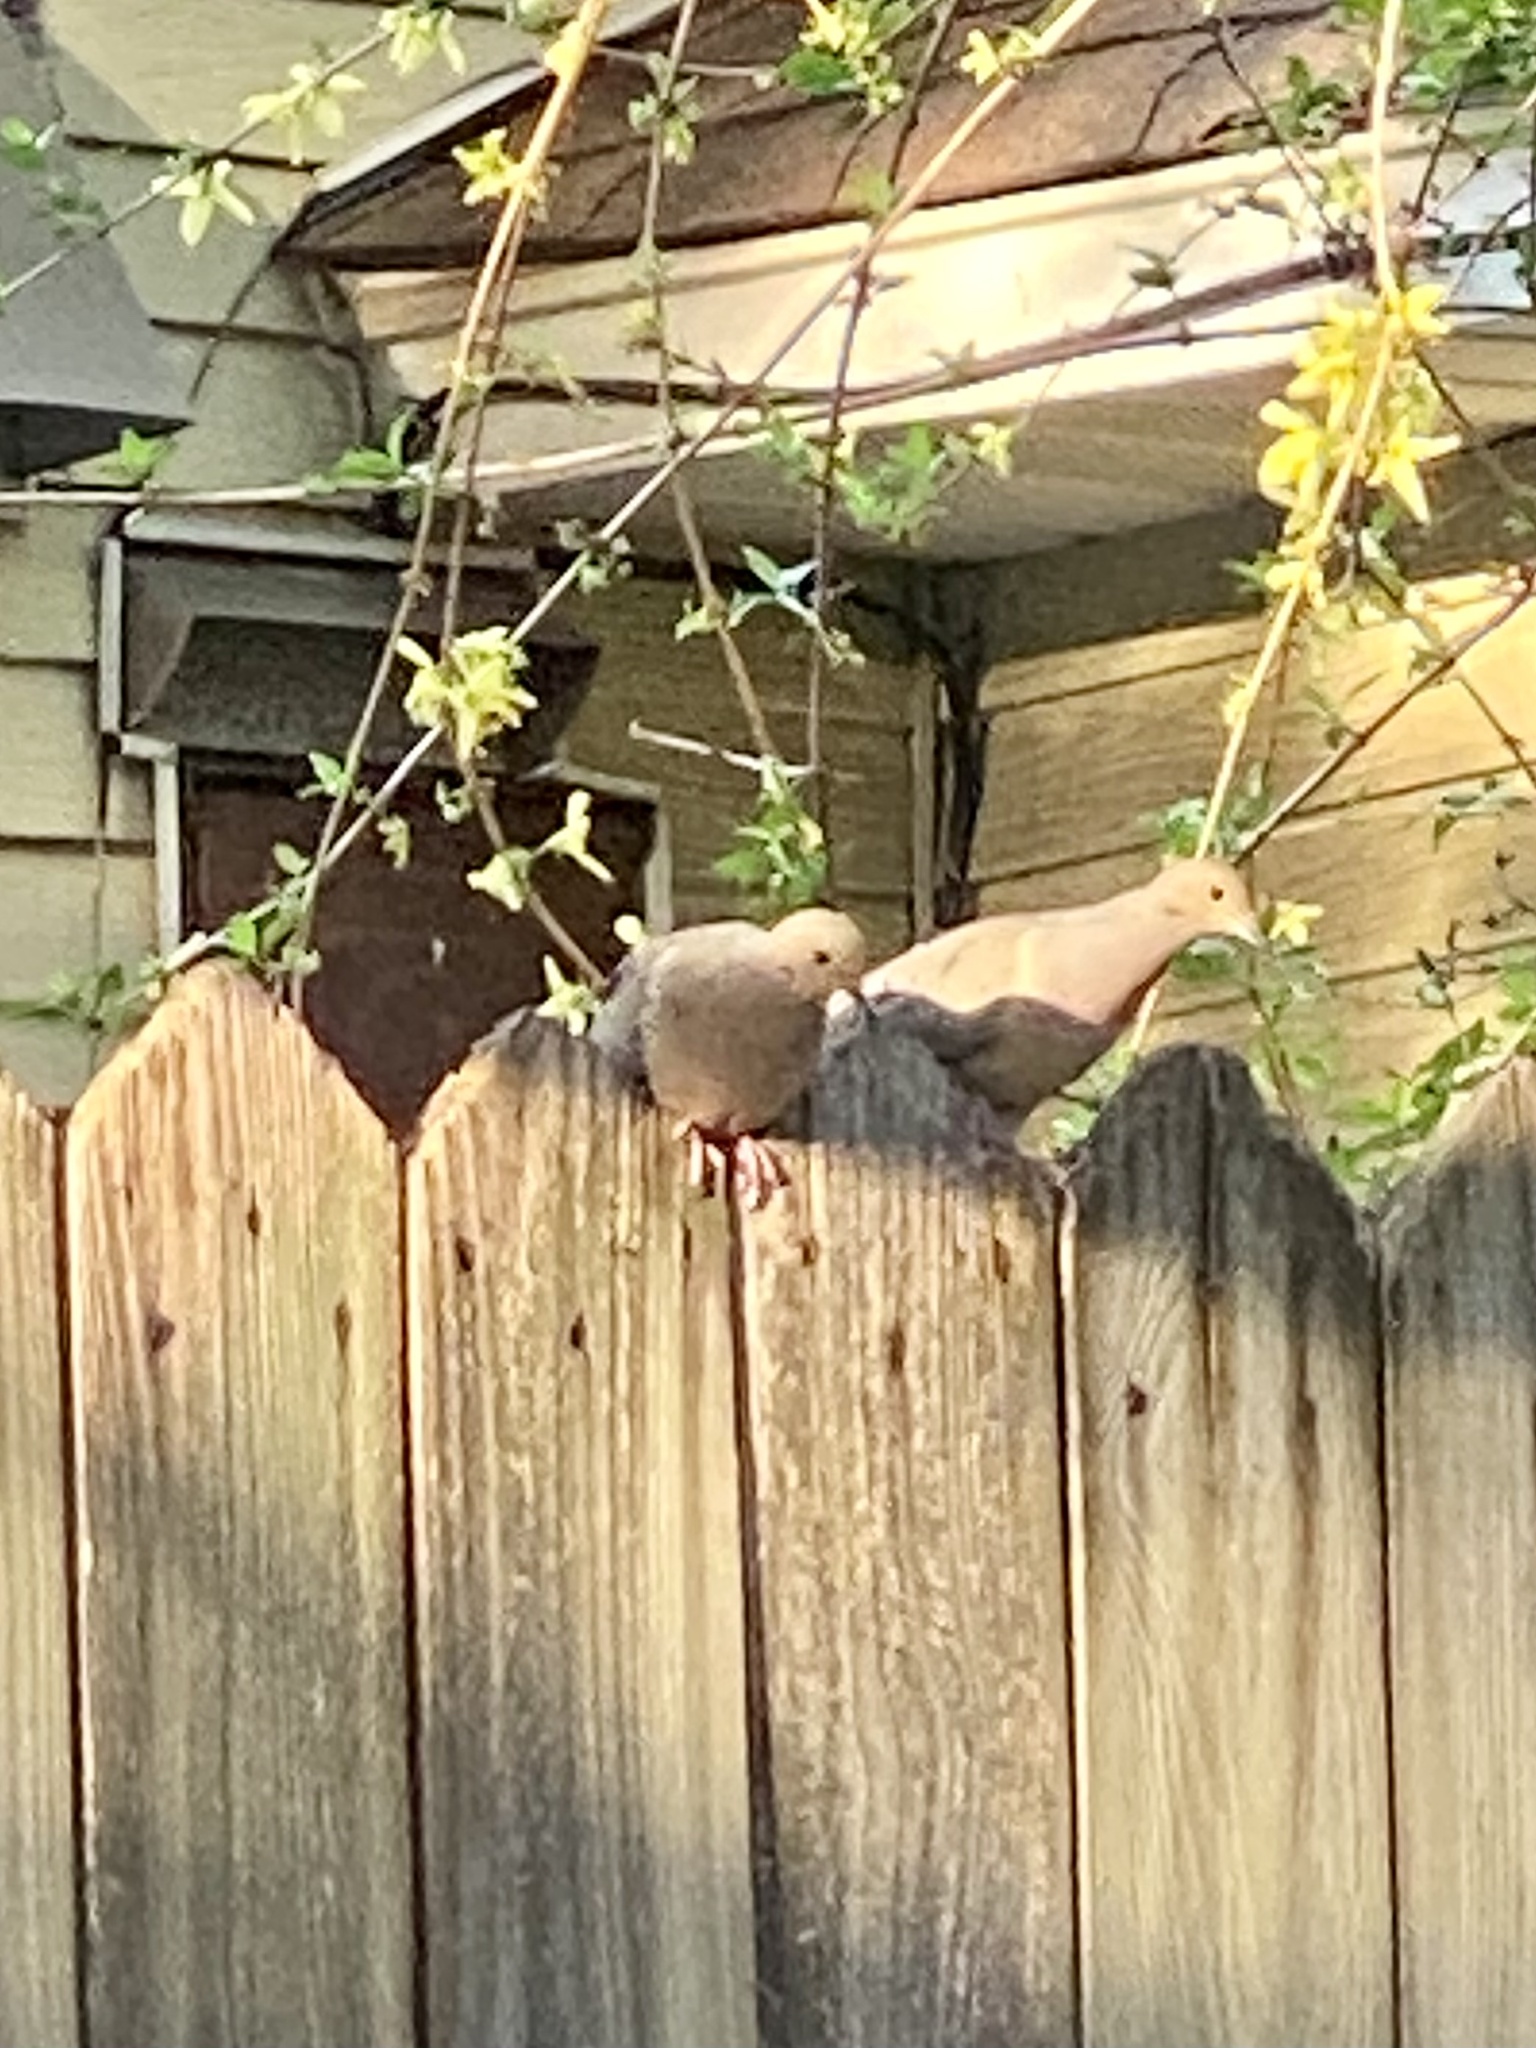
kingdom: Animalia
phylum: Chordata
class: Aves
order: Columbiformes
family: Columbidae
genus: Zenaida
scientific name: Zenaida macroura
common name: Mourning dove
